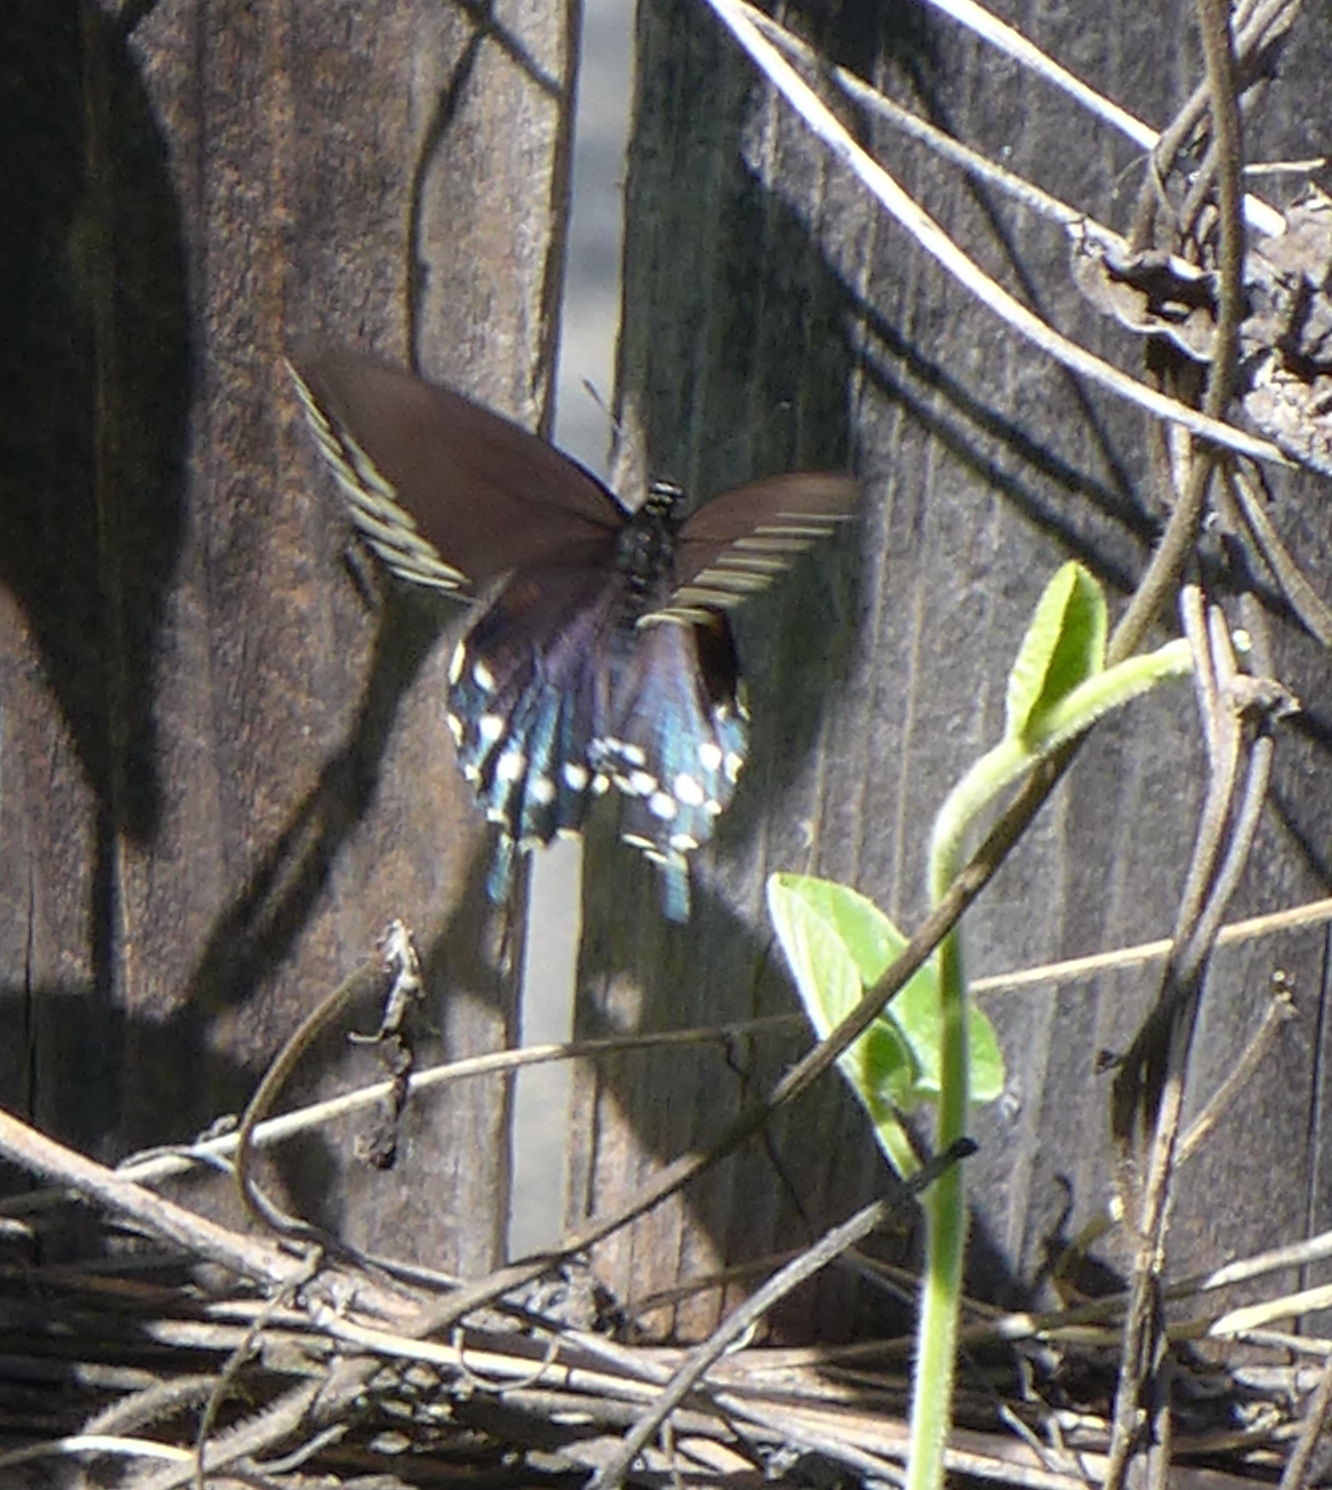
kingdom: Animalia
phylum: Arthropoda
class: Insecta
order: Lepidoptera
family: Papilionidae
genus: Battus
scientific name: Battus philenor
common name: Pipevine swallowtail
